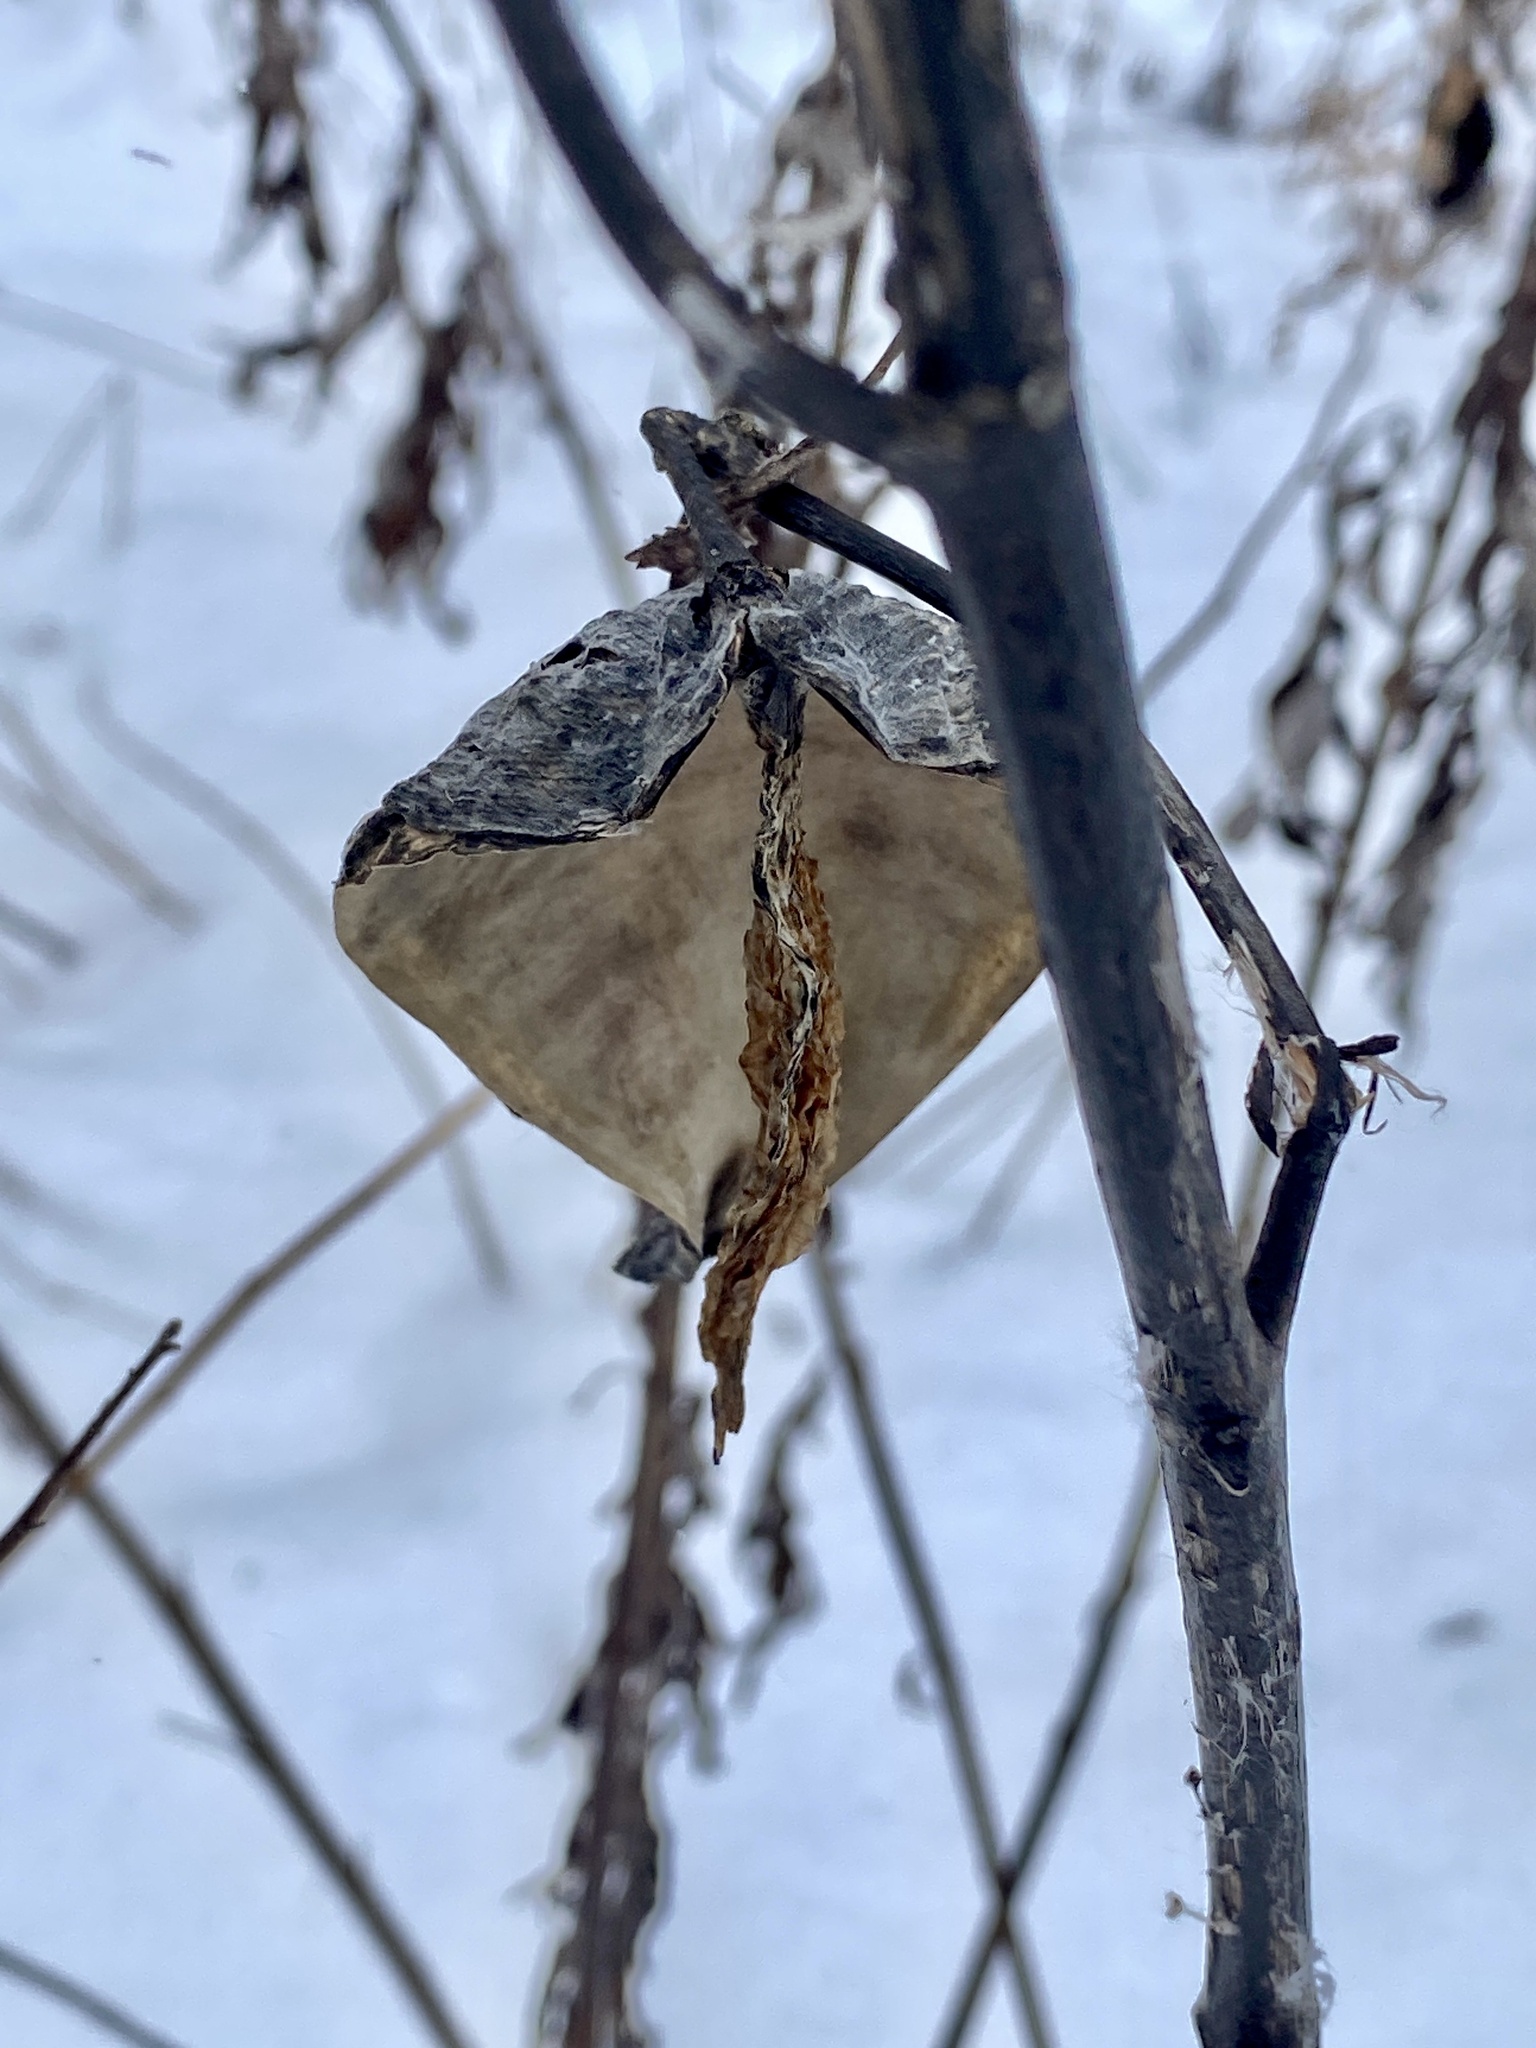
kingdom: Plantae
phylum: Tracheophyta
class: Magnoliopsida
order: Gentianales
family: Apocynaceae
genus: Asclepias
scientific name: Asclepias syriaca
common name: Common milkweed
